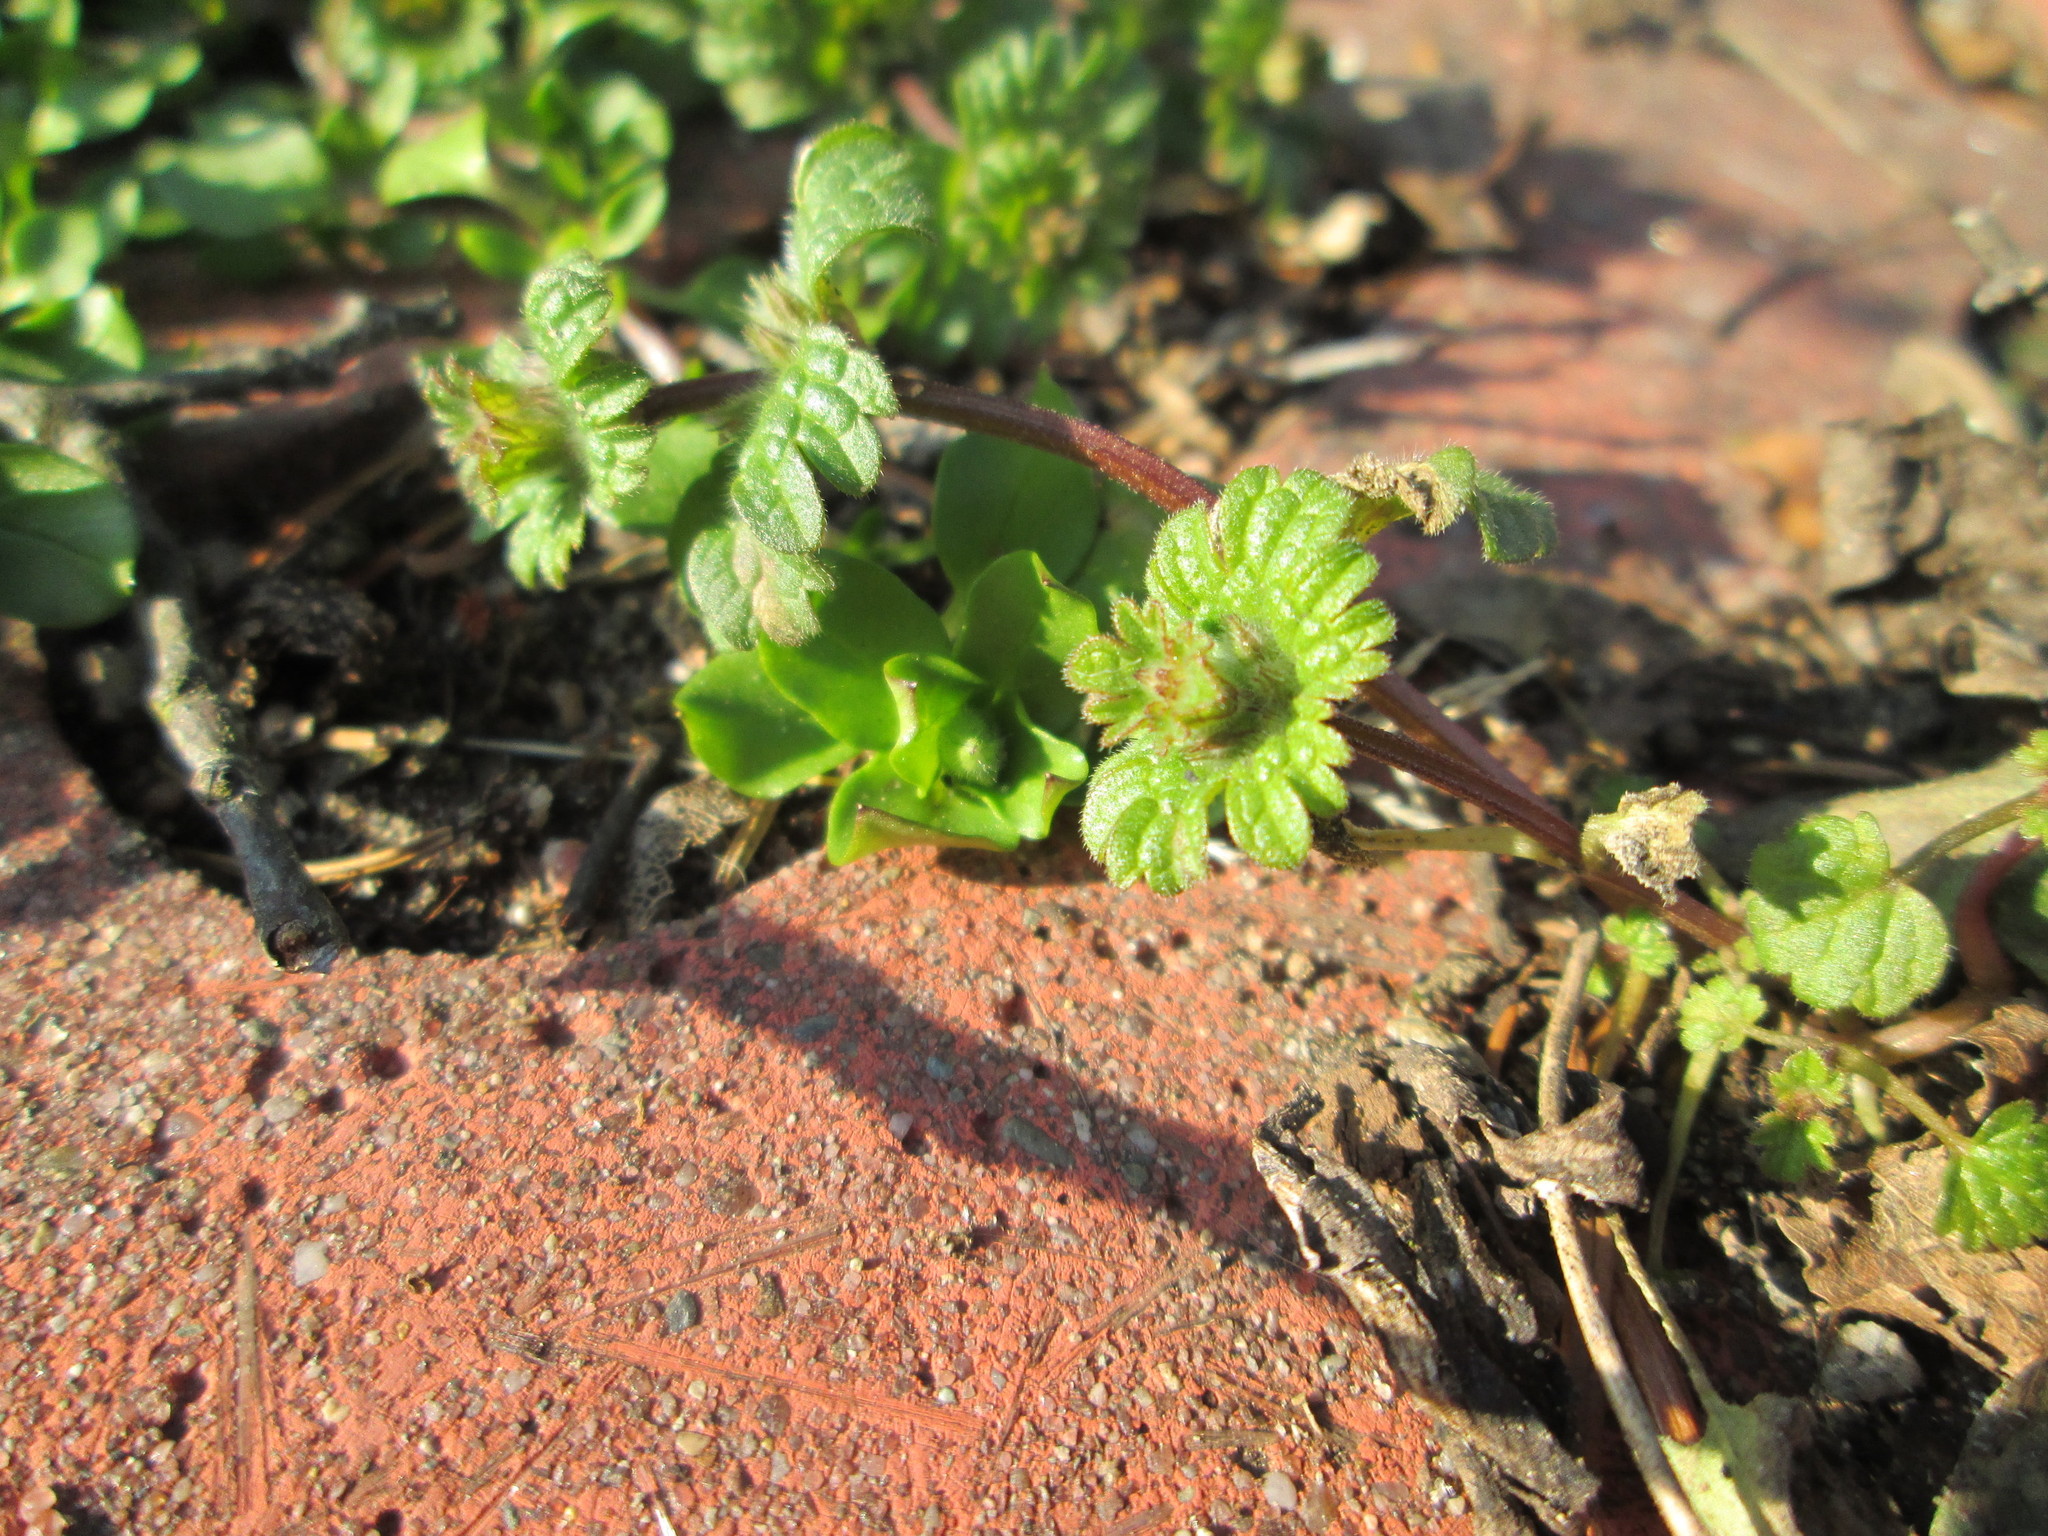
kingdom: Plantae
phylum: Tracheophyta
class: Magnoliopsida
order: Lamiales
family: Lamiaceae
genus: Lamium
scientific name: Lamium amplexicaule
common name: Henbit dead-nettle
